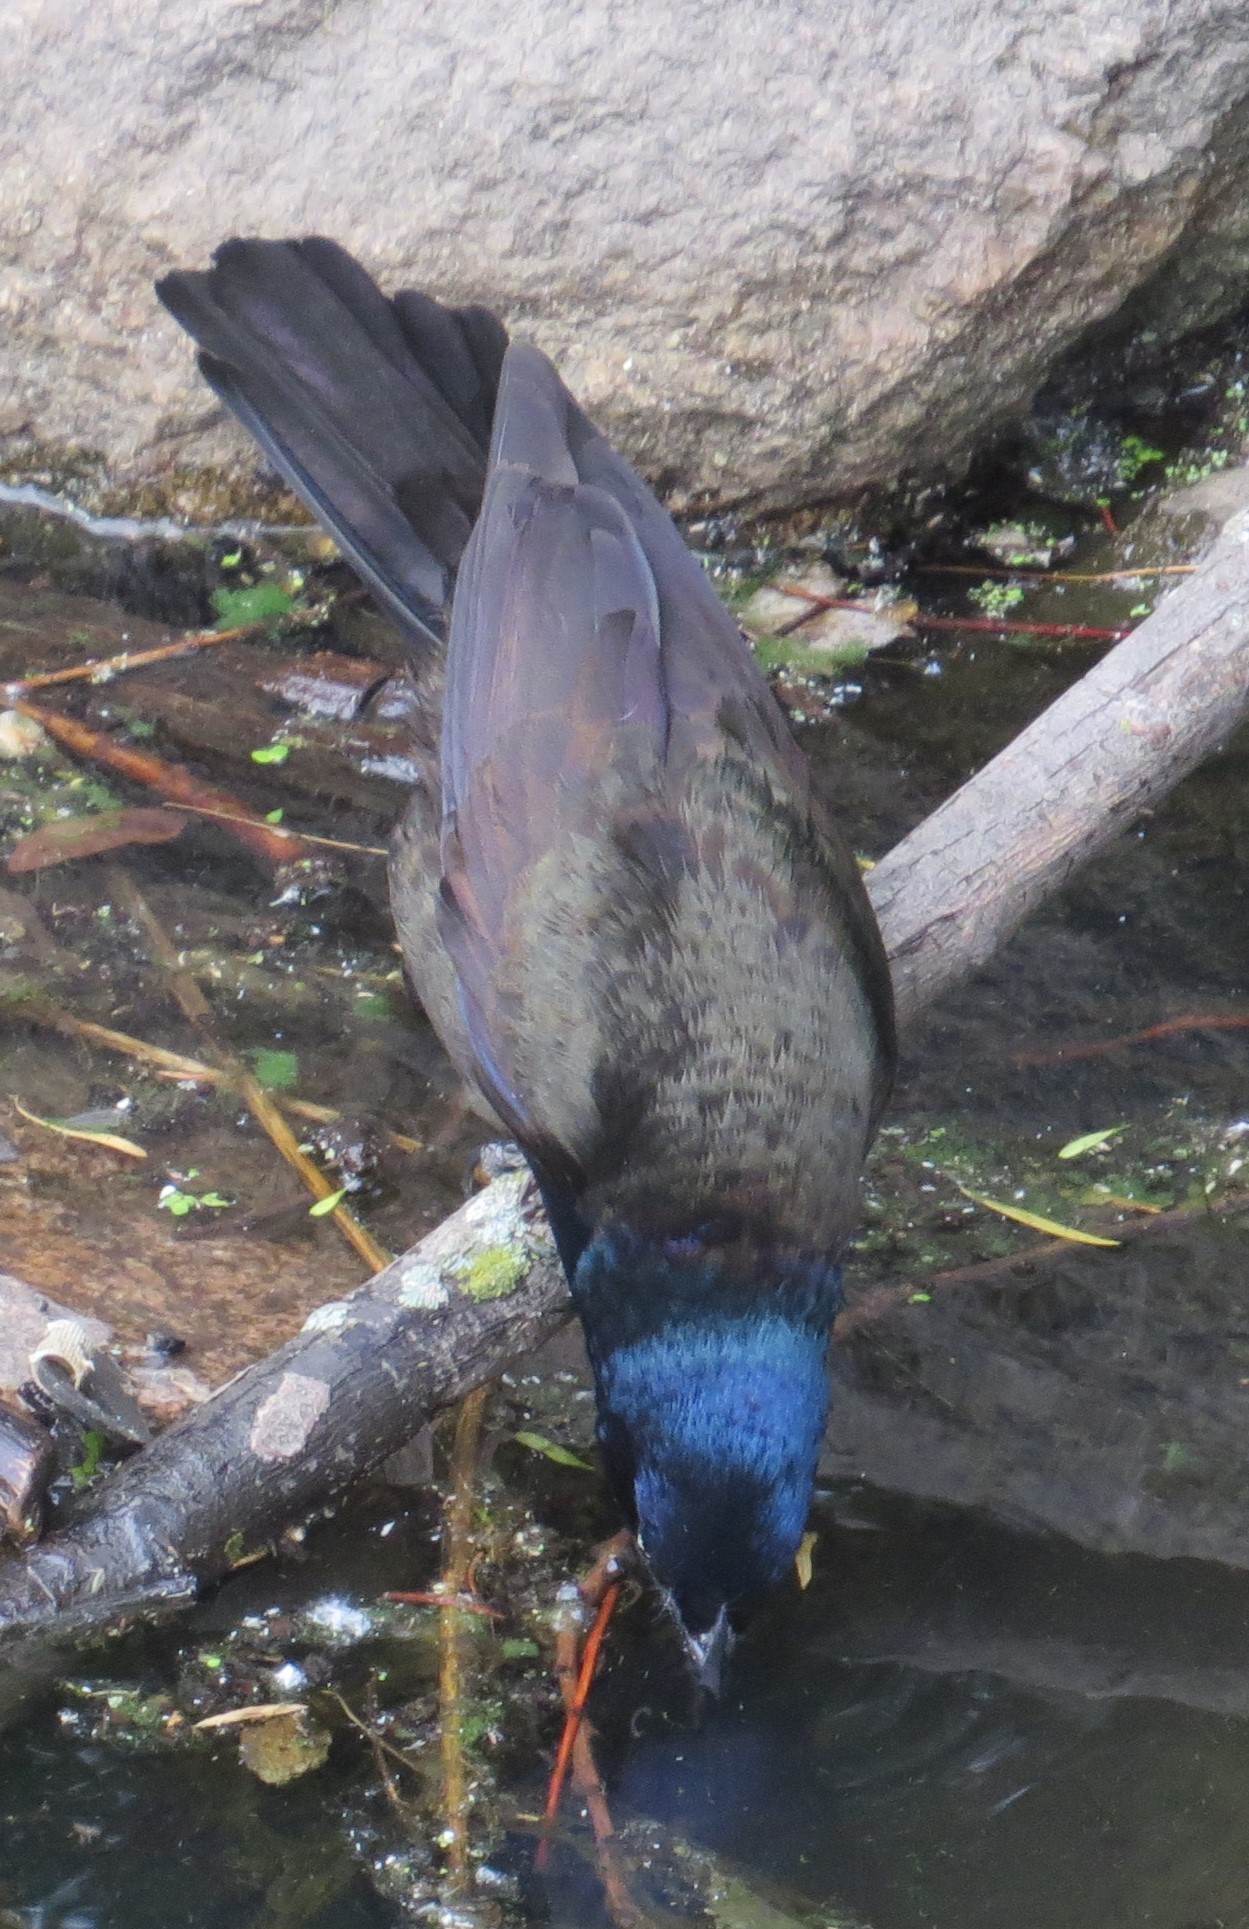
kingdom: Animalia
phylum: Chordata
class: Aves
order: Passeriformes
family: Icteridae
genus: Quiscalus
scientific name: Quiscalus quiscula
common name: Common grackle
